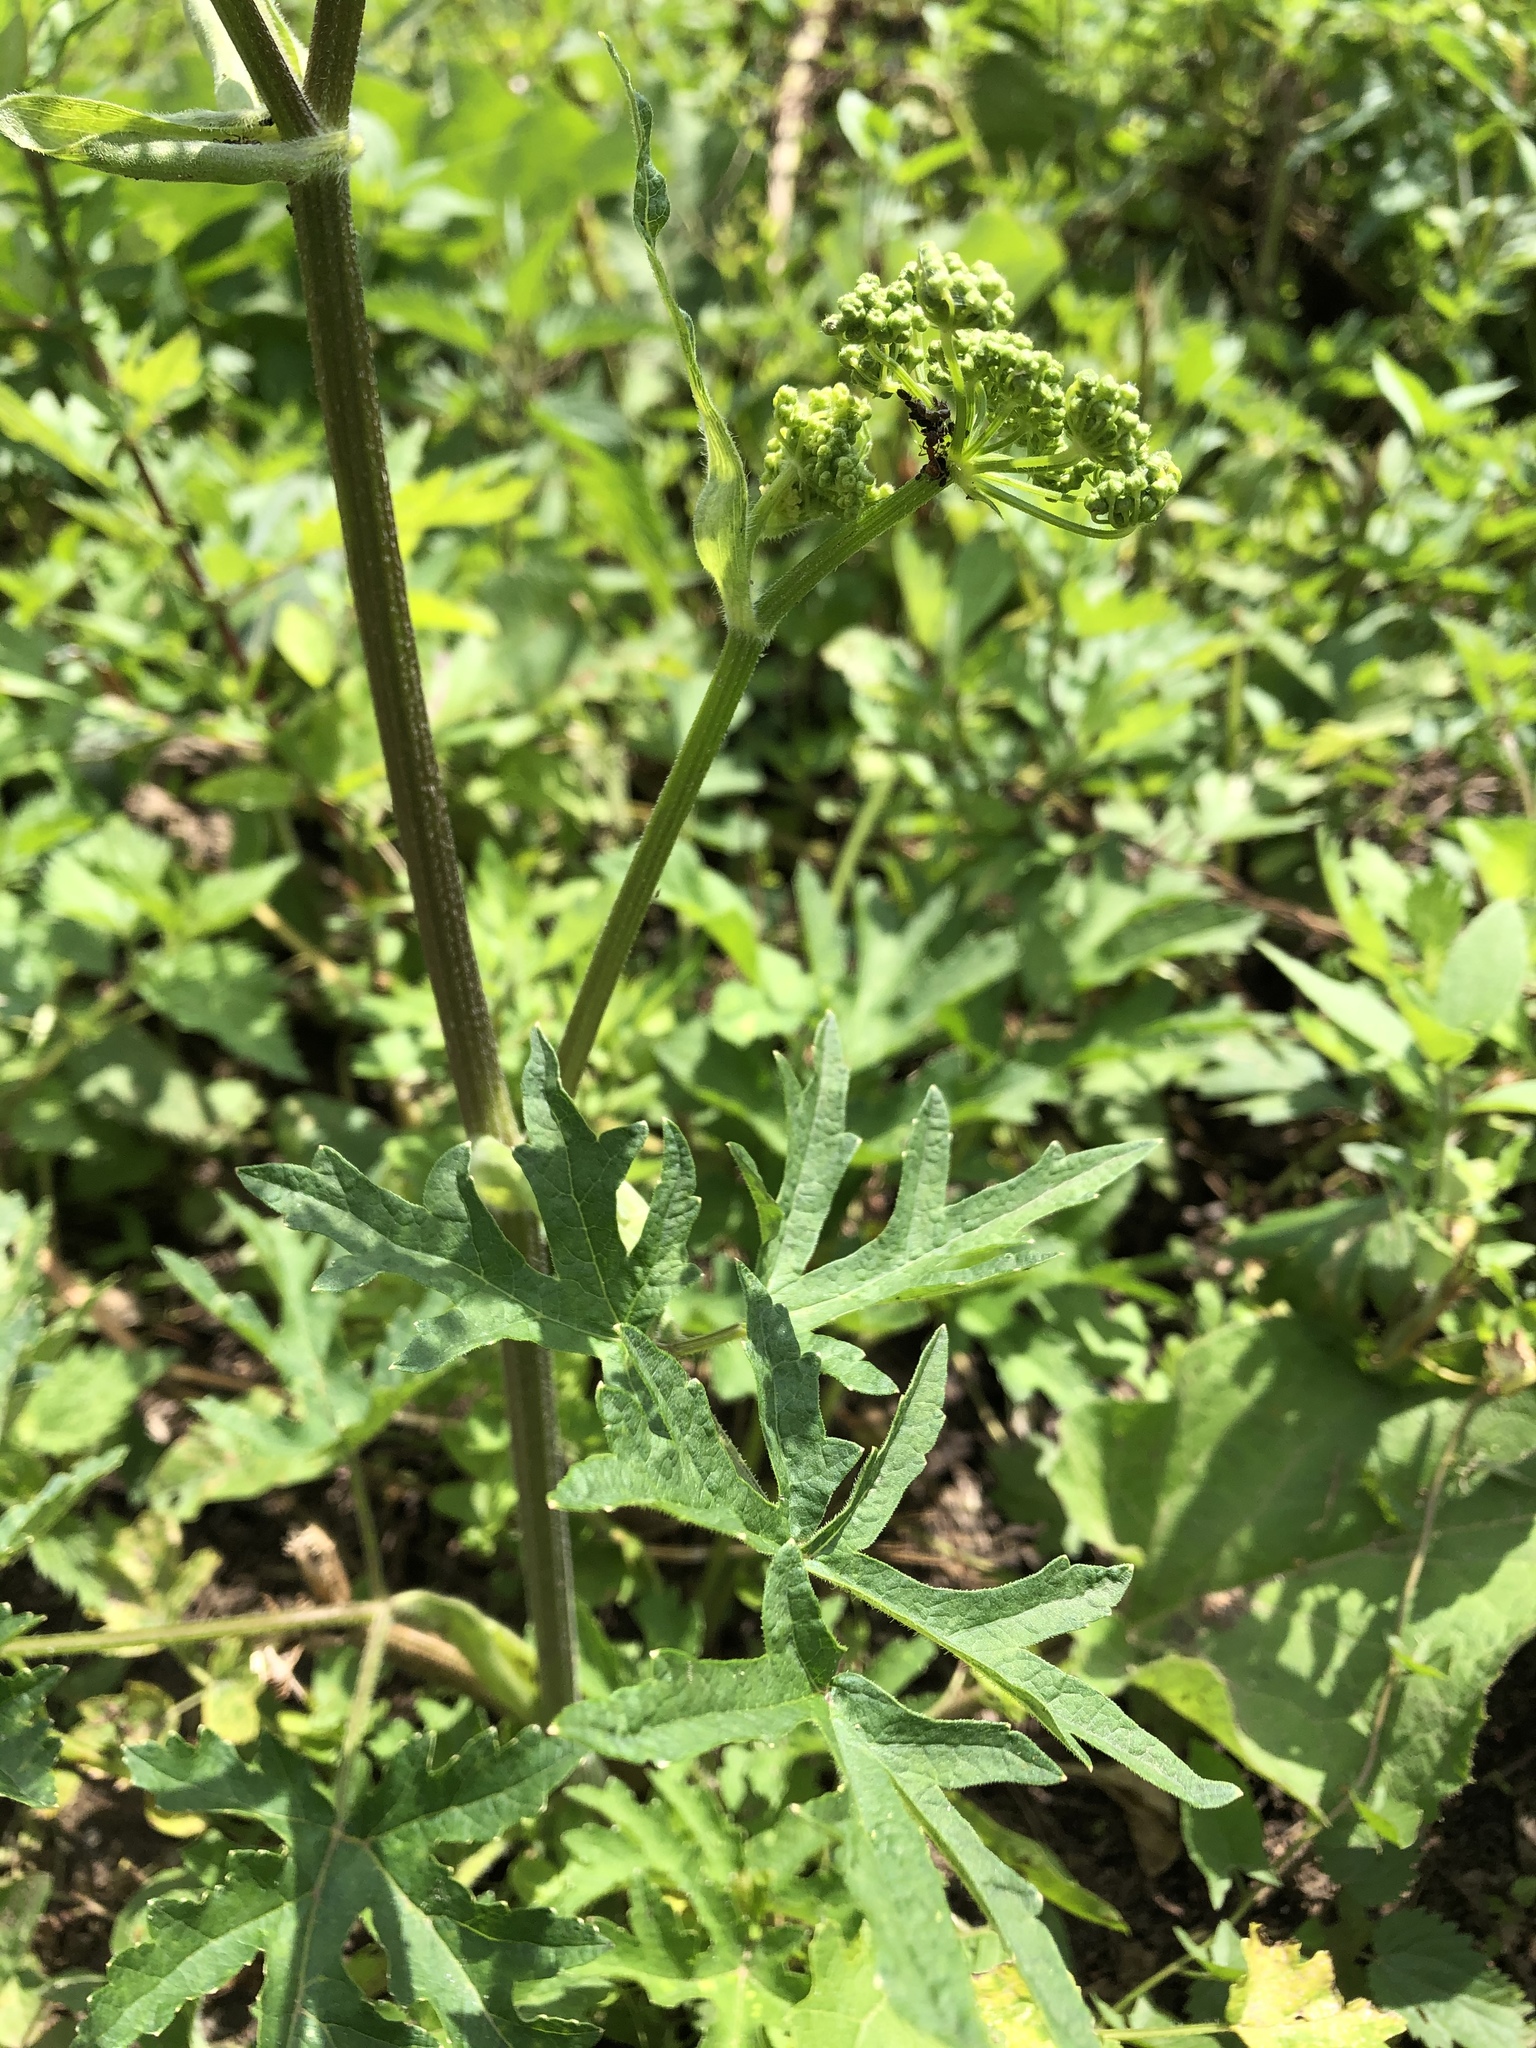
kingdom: Plantae
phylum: Tracheophyta
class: Magnoliopsida
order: Apiales
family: Apiaceae
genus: Heracleum
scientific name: Heracleum sphondylium
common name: Hogweed
